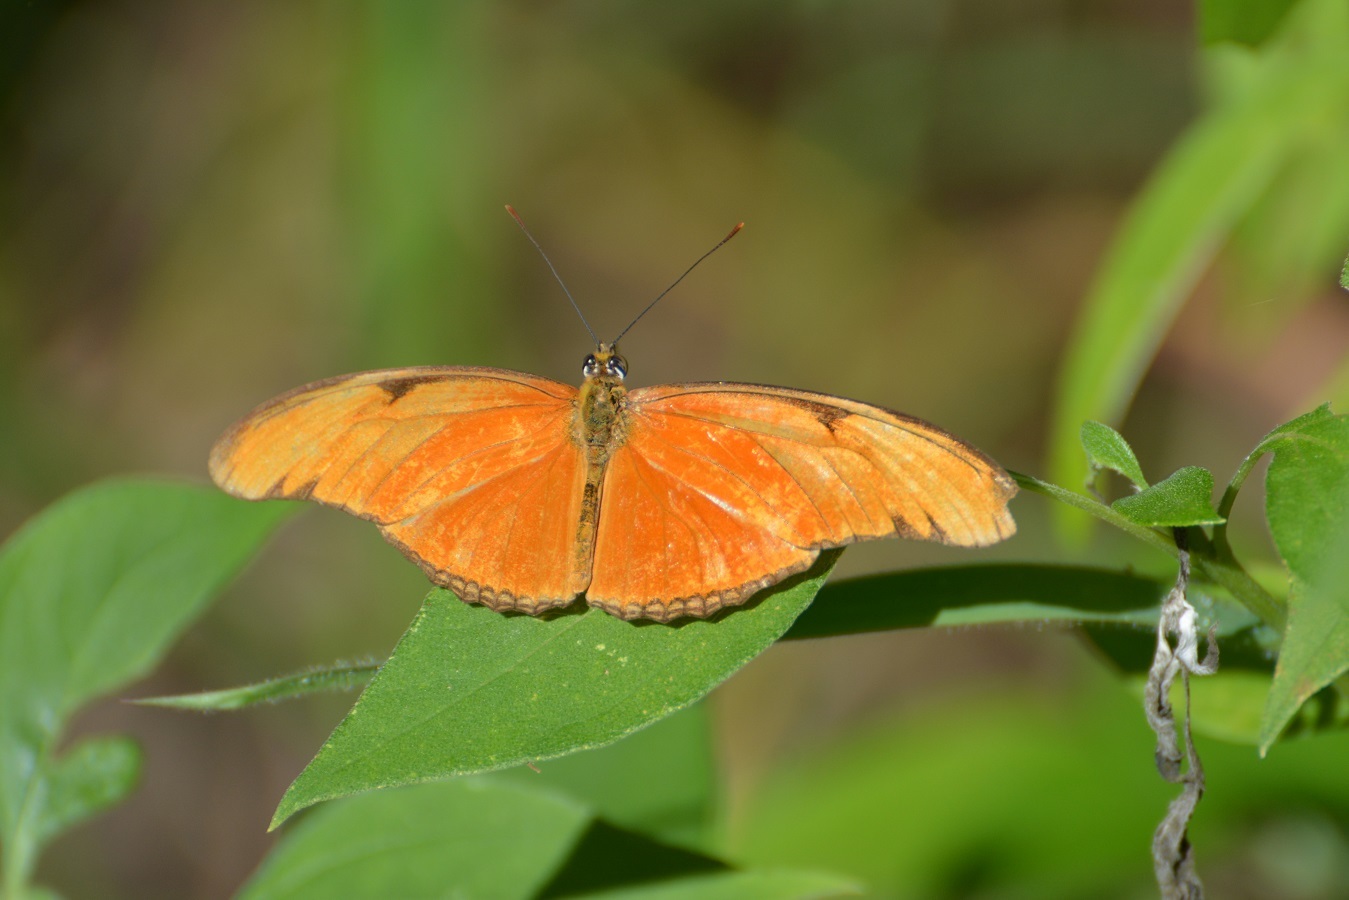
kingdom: Animalia
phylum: Arthropoda
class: Insecta
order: Lepidoptera
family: Nymphalidae
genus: Dryas
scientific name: Dryas iulia
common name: Flambeau
